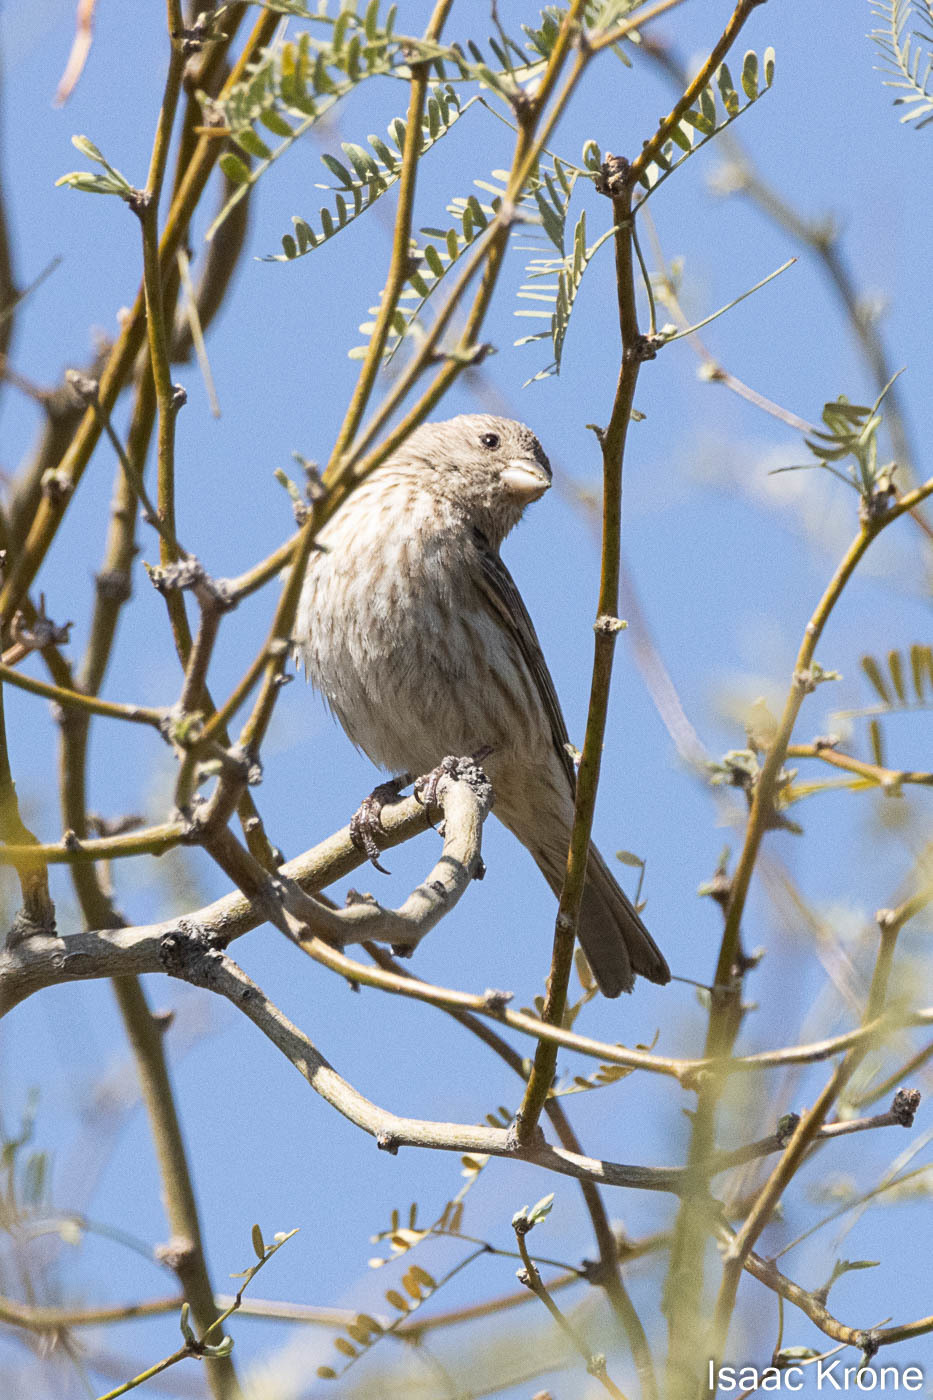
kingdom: Animalia
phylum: Chordata
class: Aves
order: Passeriformes
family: Fringillidae
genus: Haemorhous
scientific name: Haemorhous mexicanus
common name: House finch
